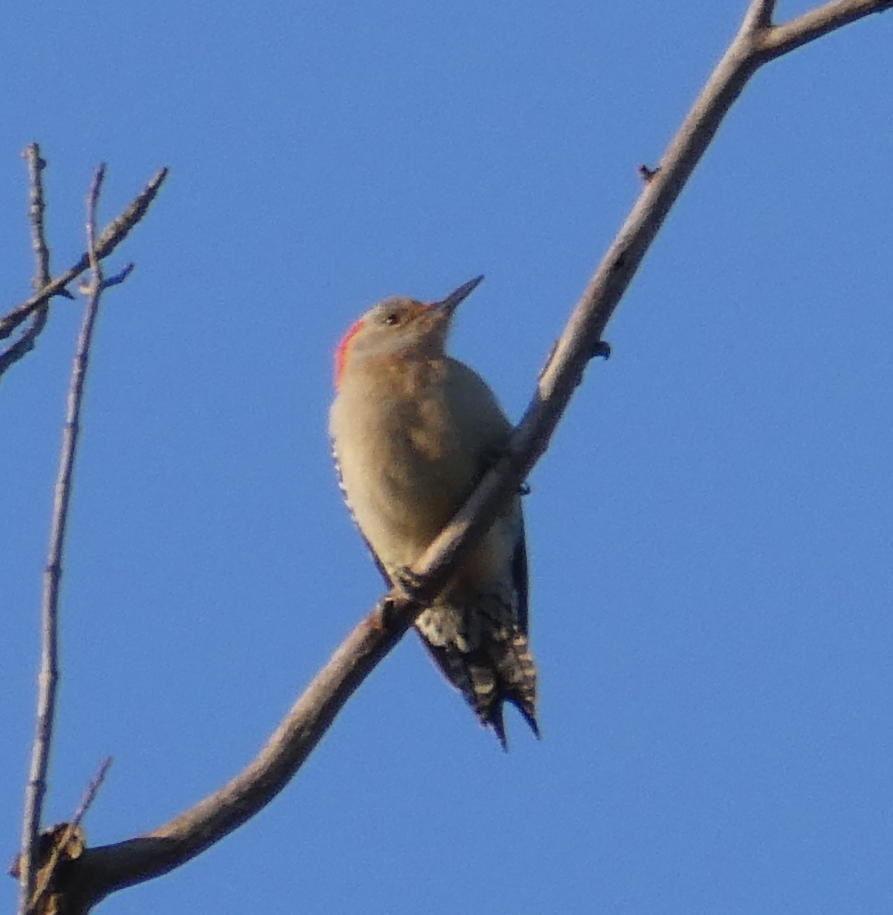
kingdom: Animalia
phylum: Chordata
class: Aves
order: Piciformes
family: Picidae
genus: Melanerpes
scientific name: Melanerpes carolinus
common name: Red-bellied woodpecker
